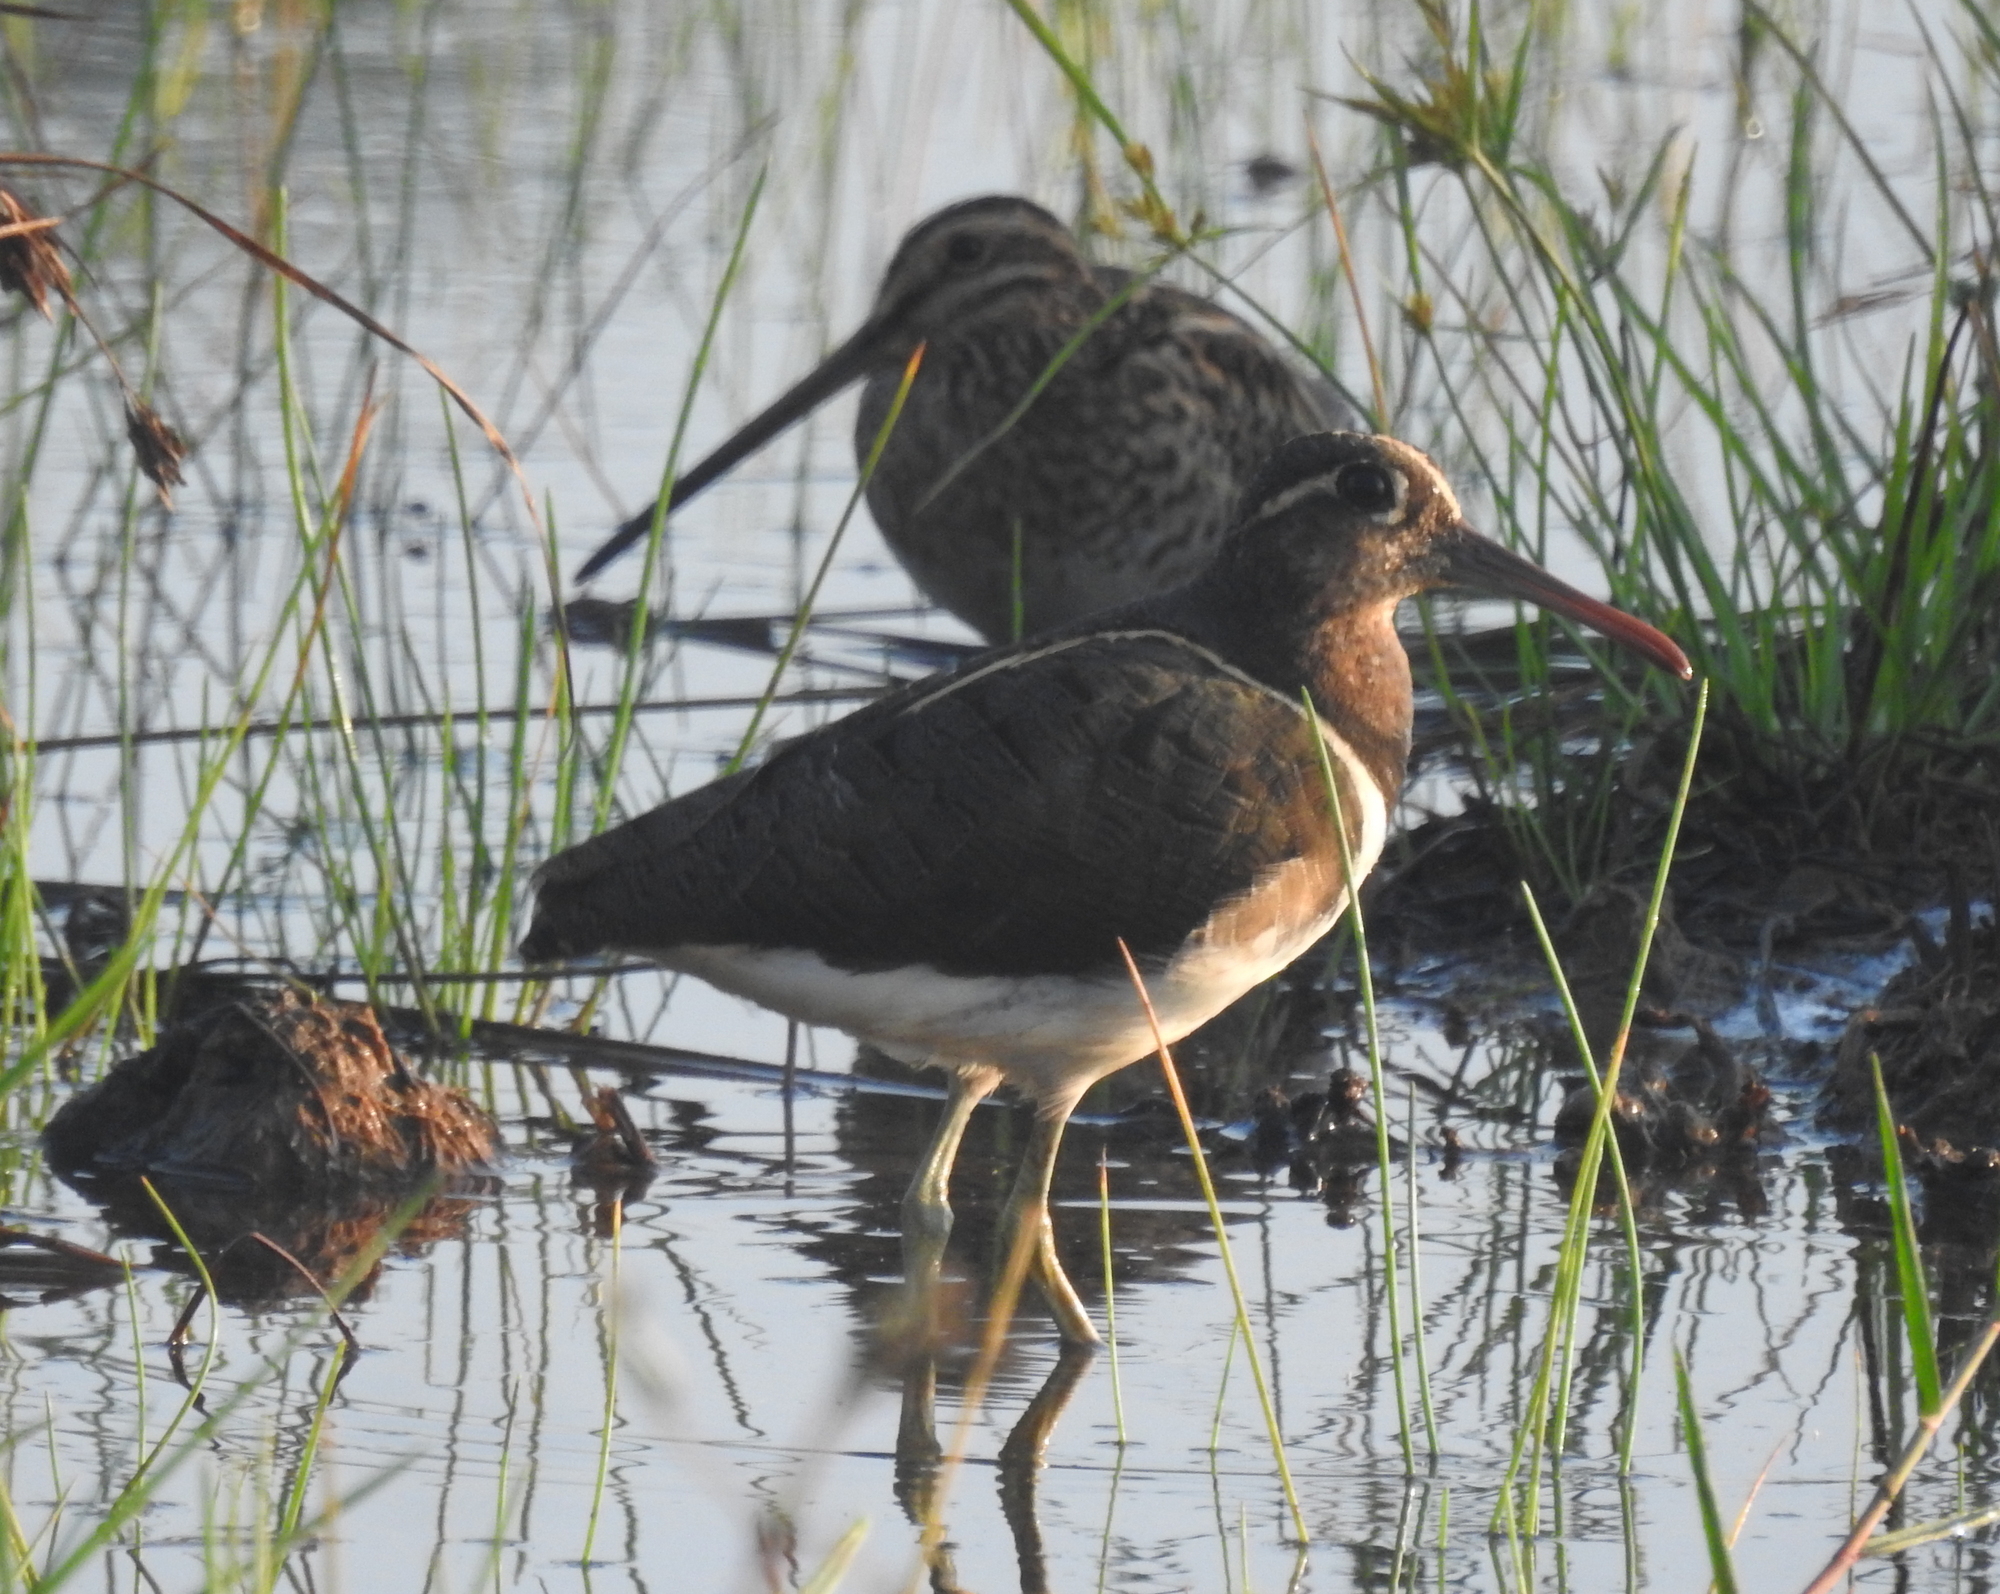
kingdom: Animalia
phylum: Chordata
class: Aves
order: Charadriiformes
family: Rostratulidae
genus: Rostratula
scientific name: Rostratula benghalensis
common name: Greater painted-snipe
